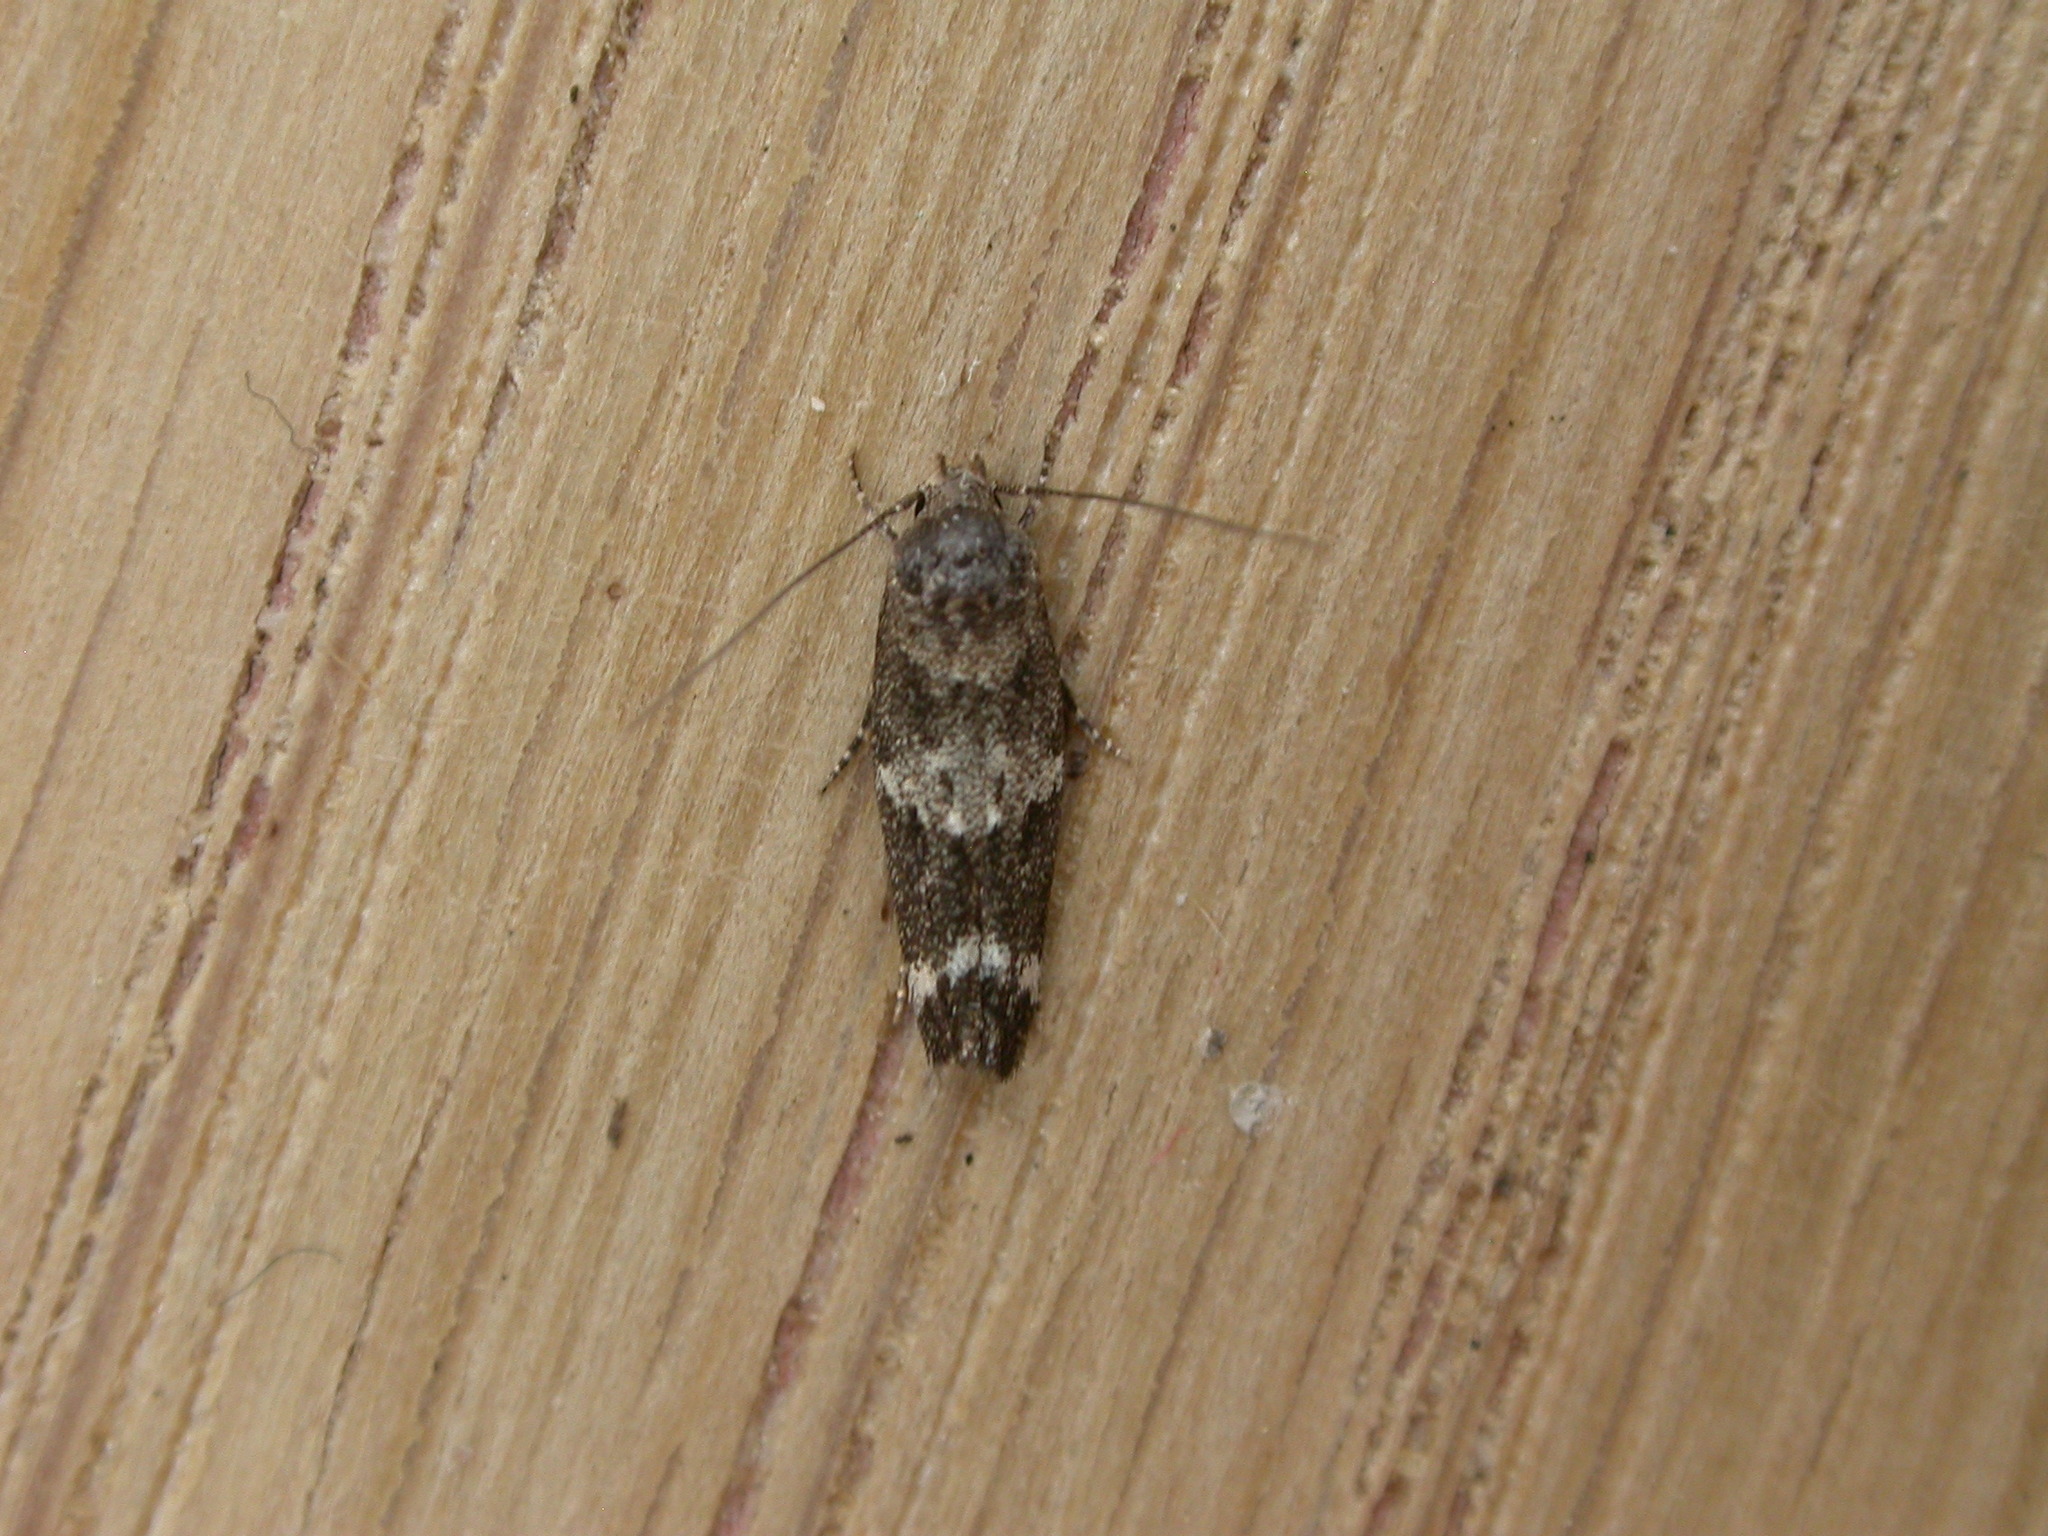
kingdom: Animalia
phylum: Arthropoda
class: Insecta
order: Lepidoptera
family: Momphidae
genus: Mompha
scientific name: Mompha subbistrigella
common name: Garden cosmet
